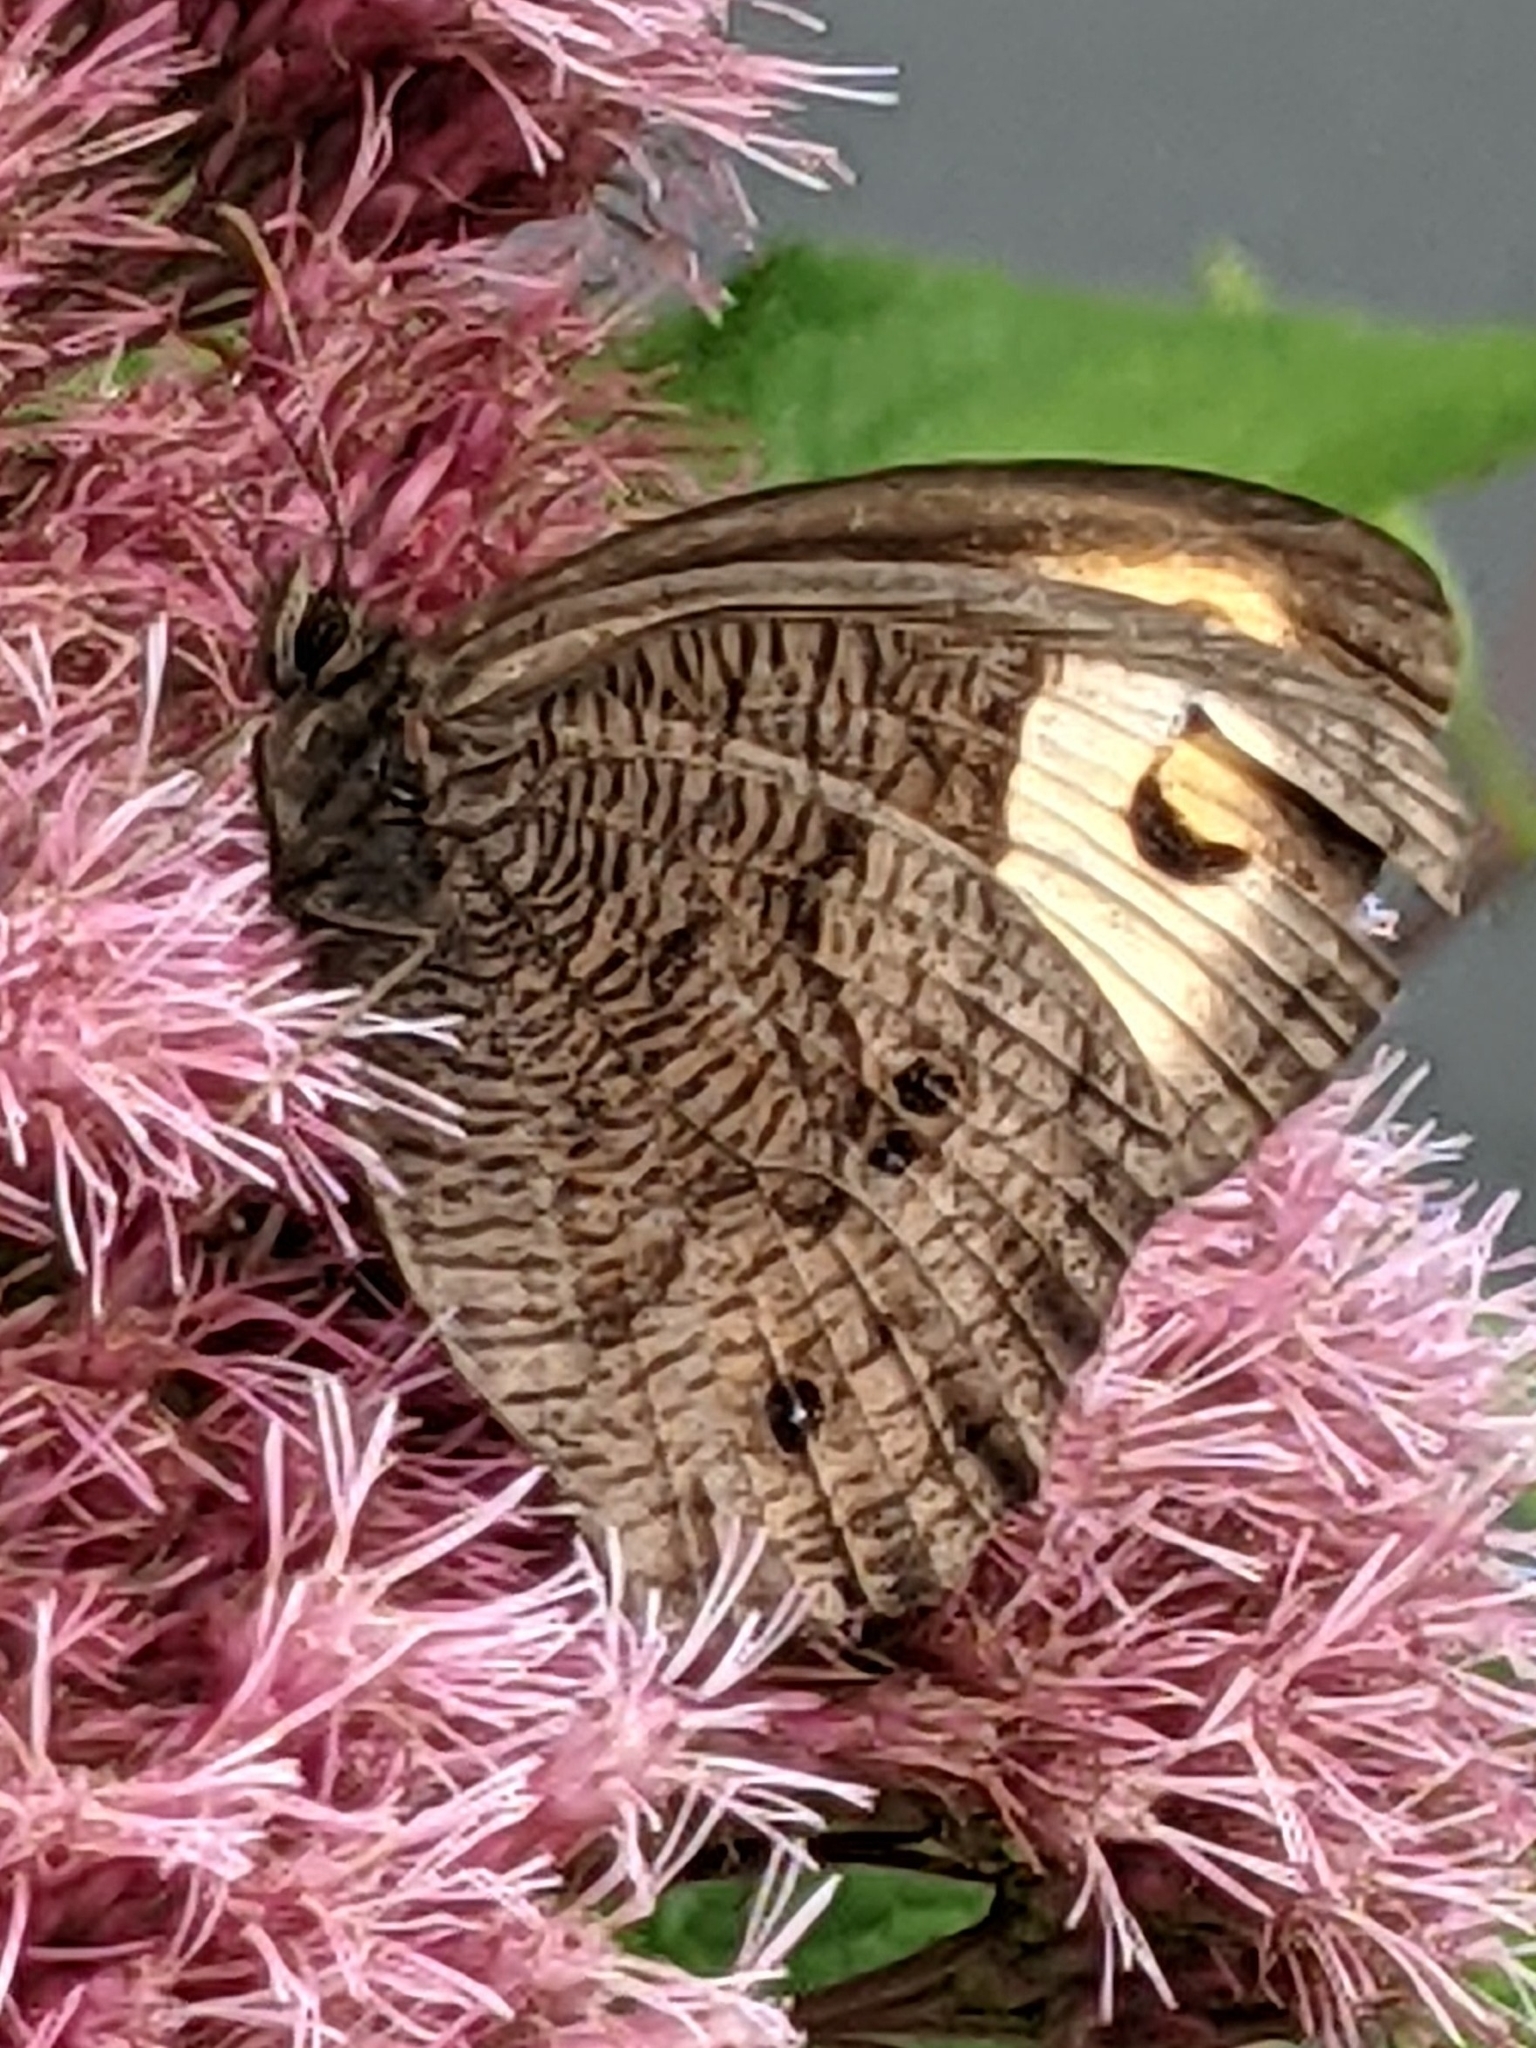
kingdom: Animalia
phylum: Arthropoda
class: Insecta
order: Lepidoptera
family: Nymphalidae
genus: Cercyonis
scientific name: Cercyonis pegala
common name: Common wood-nymph
